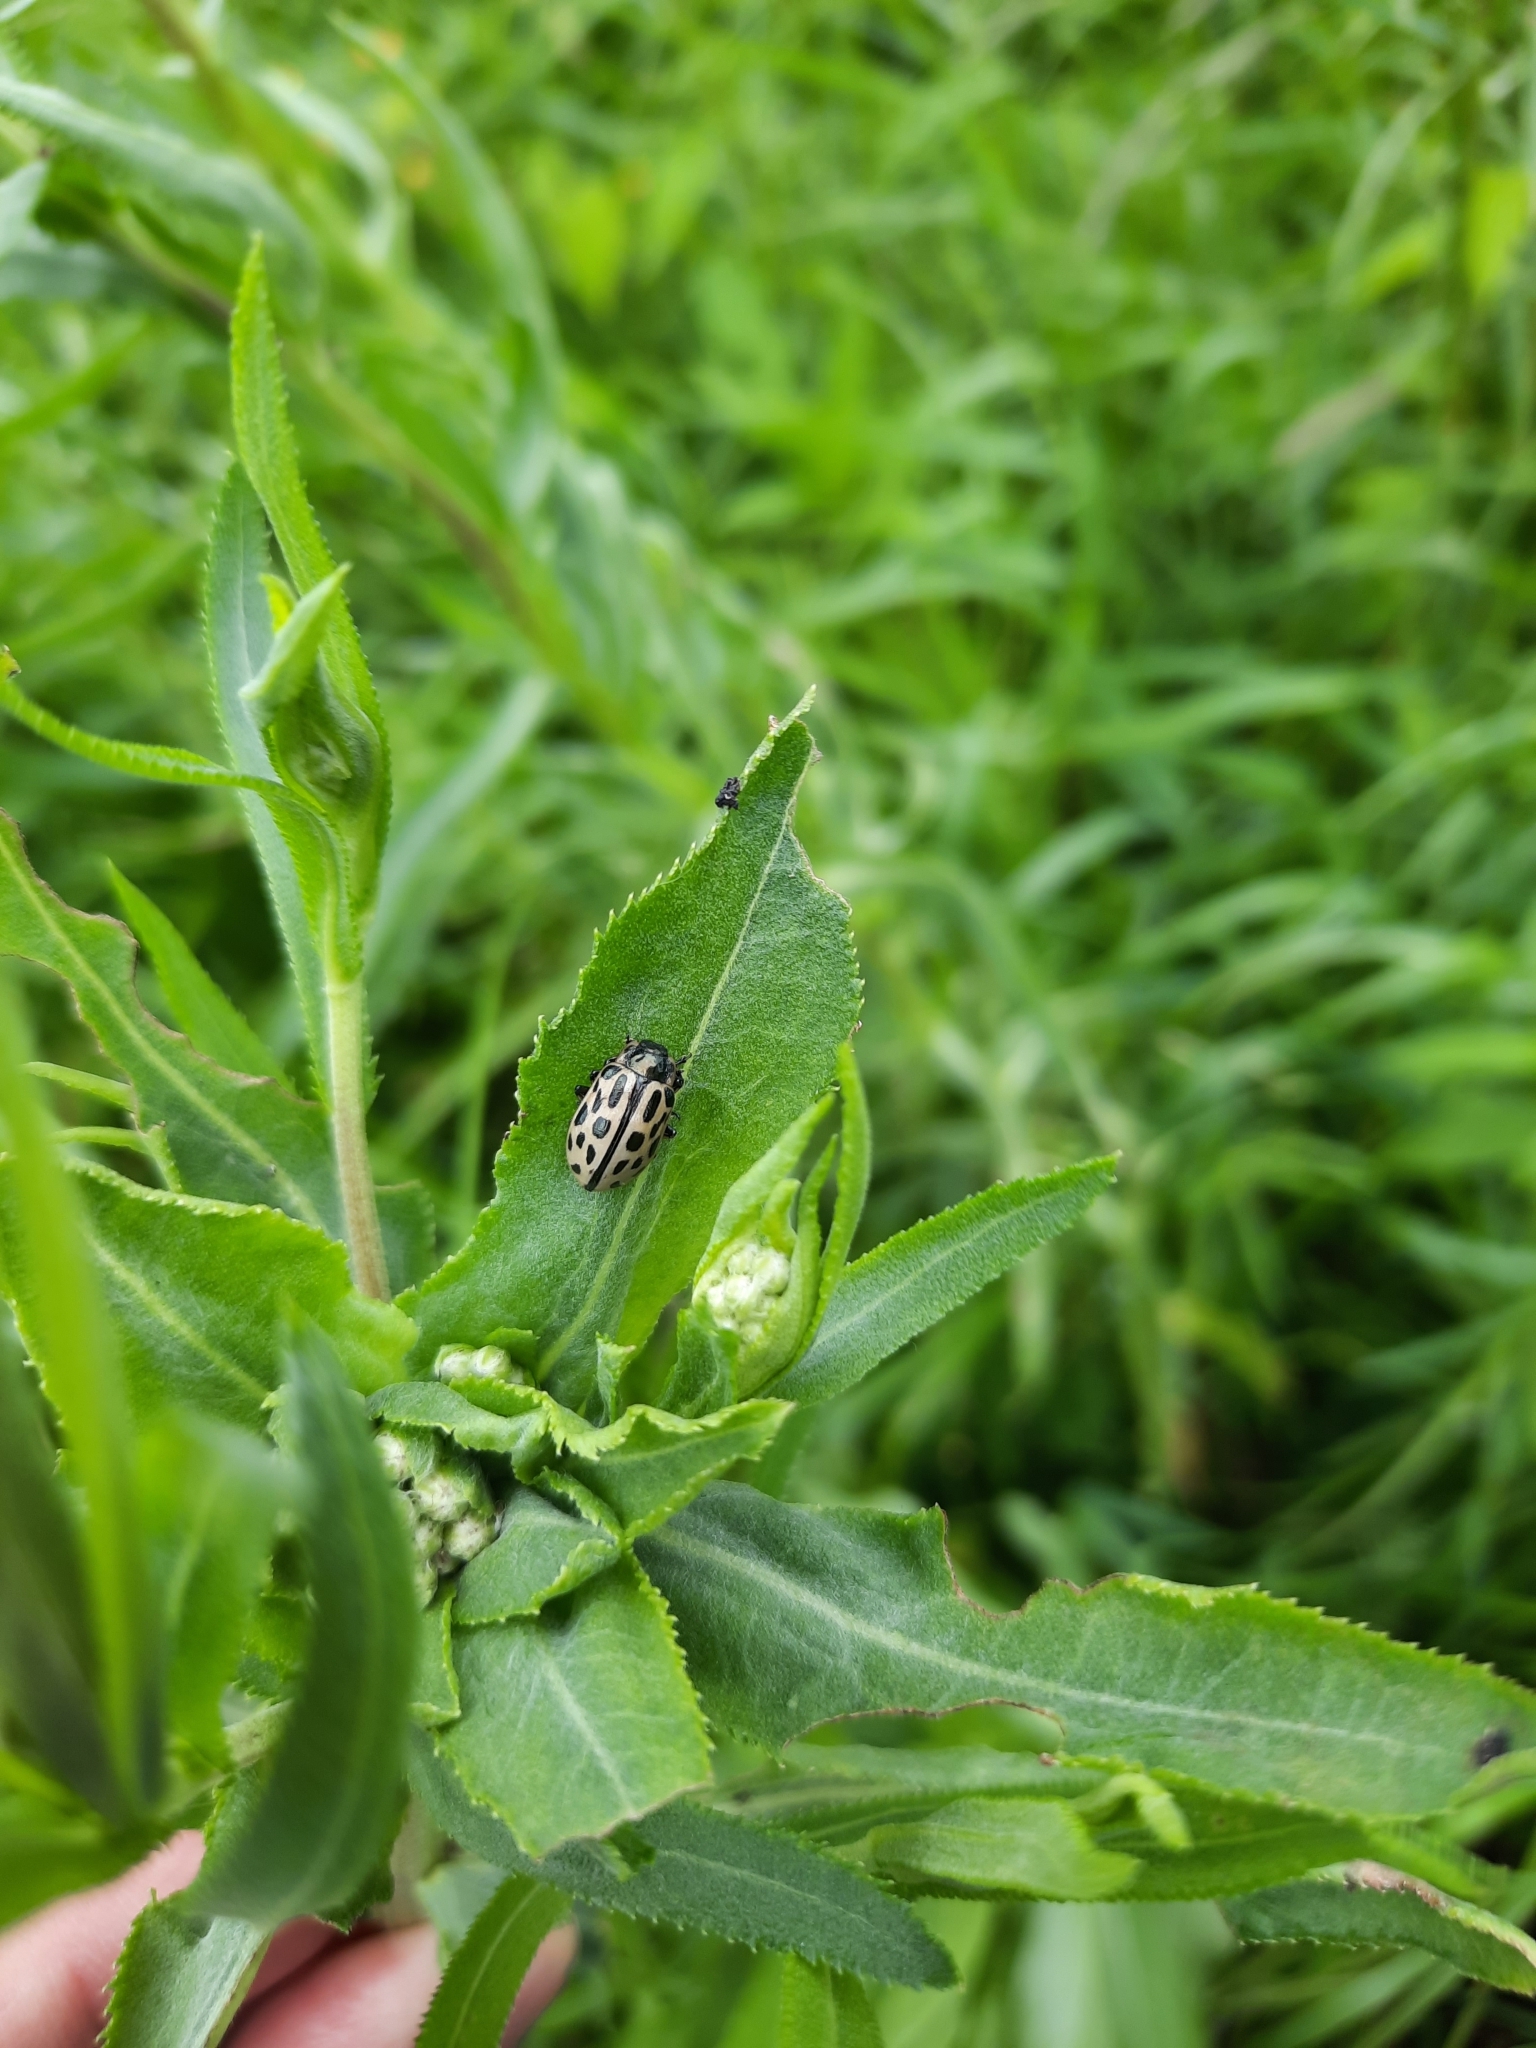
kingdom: Animalia
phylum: Arthropoda
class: Insecta
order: Coleoptera
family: Chrysomelidae
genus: Chrysomela
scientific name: Chrysomela vigintipunctata
